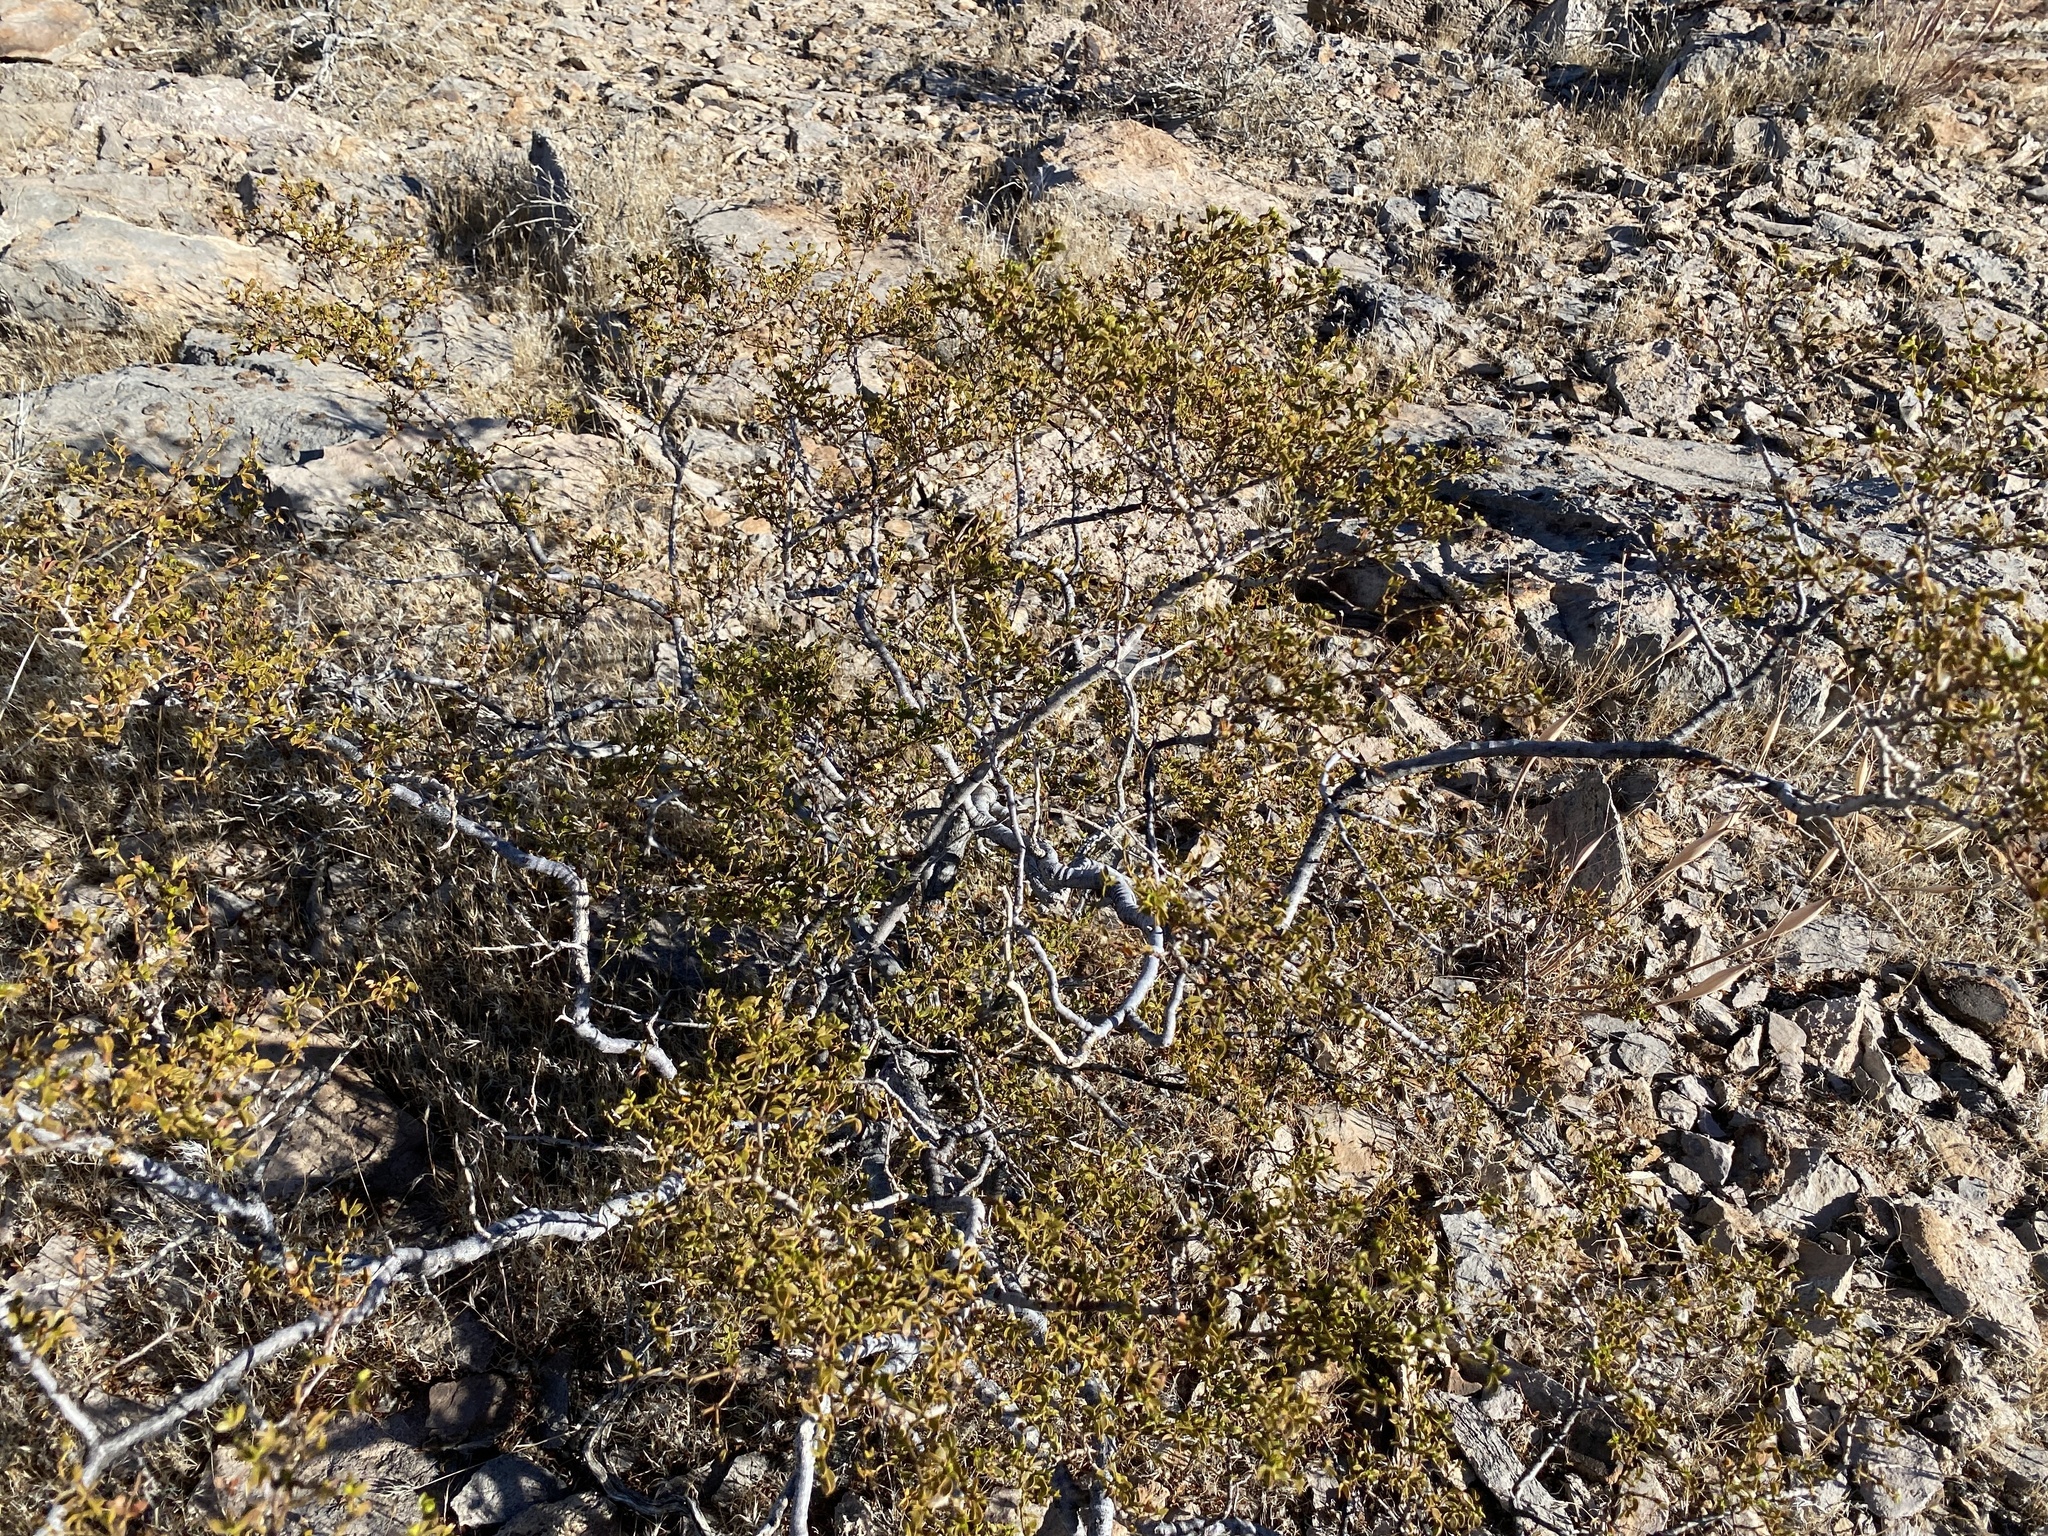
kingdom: Plantae
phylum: Tracheophyta
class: Magnoliopsida
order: Zygophyllales
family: Zygophyllaceae
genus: Larrea
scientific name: Larrea tridentata
